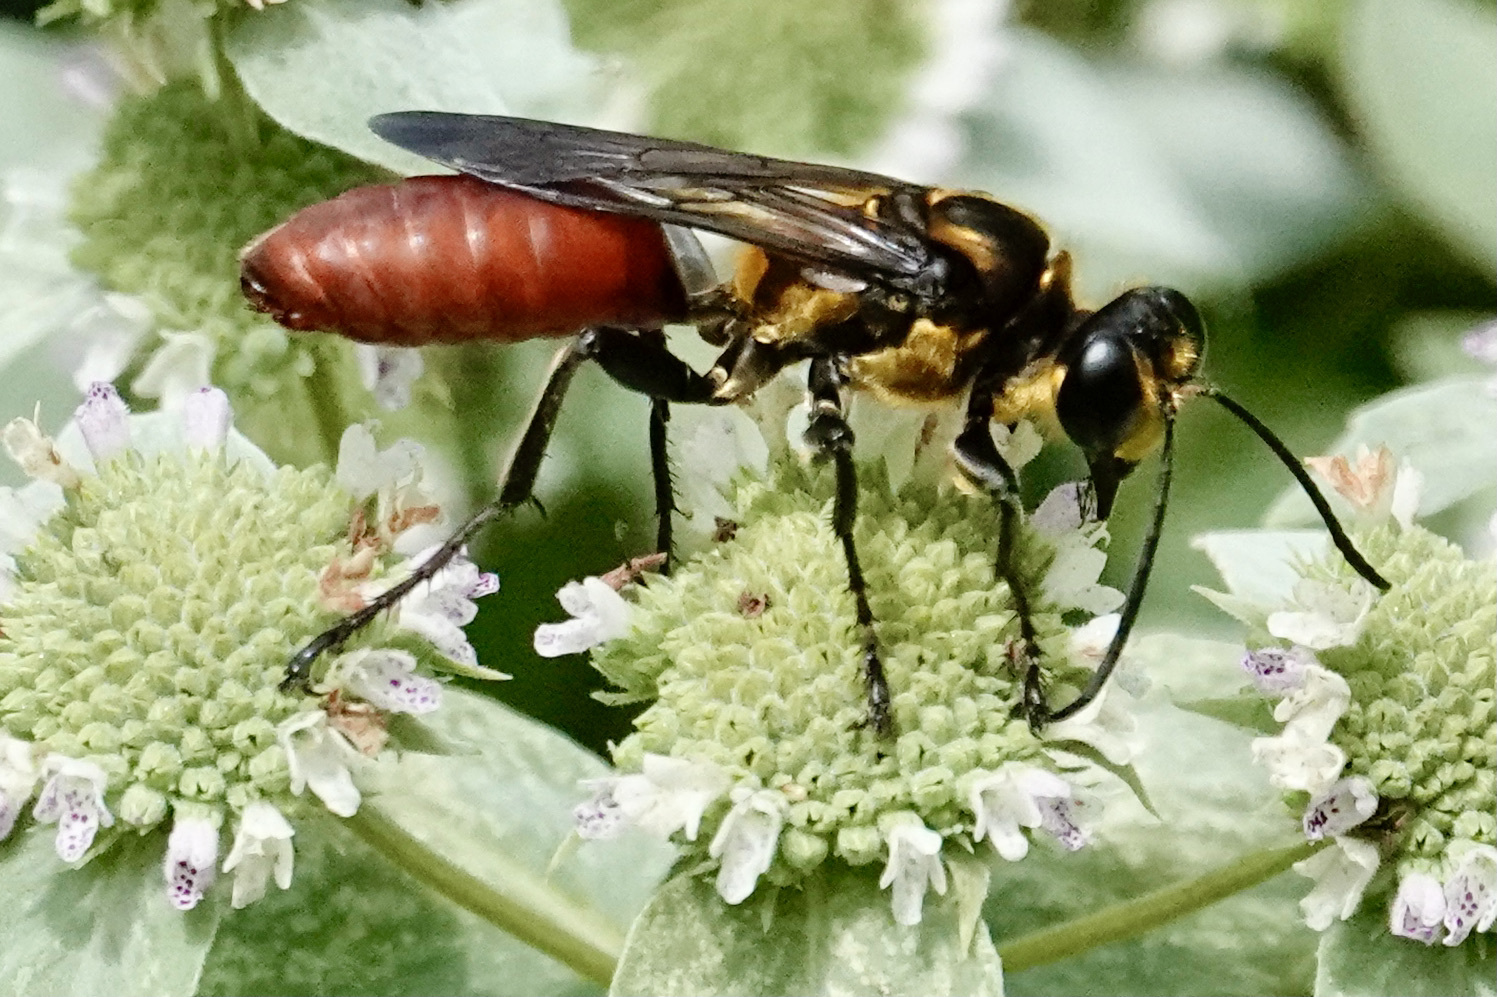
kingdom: Animalia
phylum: Arthropoda
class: Insecta
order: Hymenoptera
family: Sphecidae
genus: Sphex
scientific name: Sphex habenus
